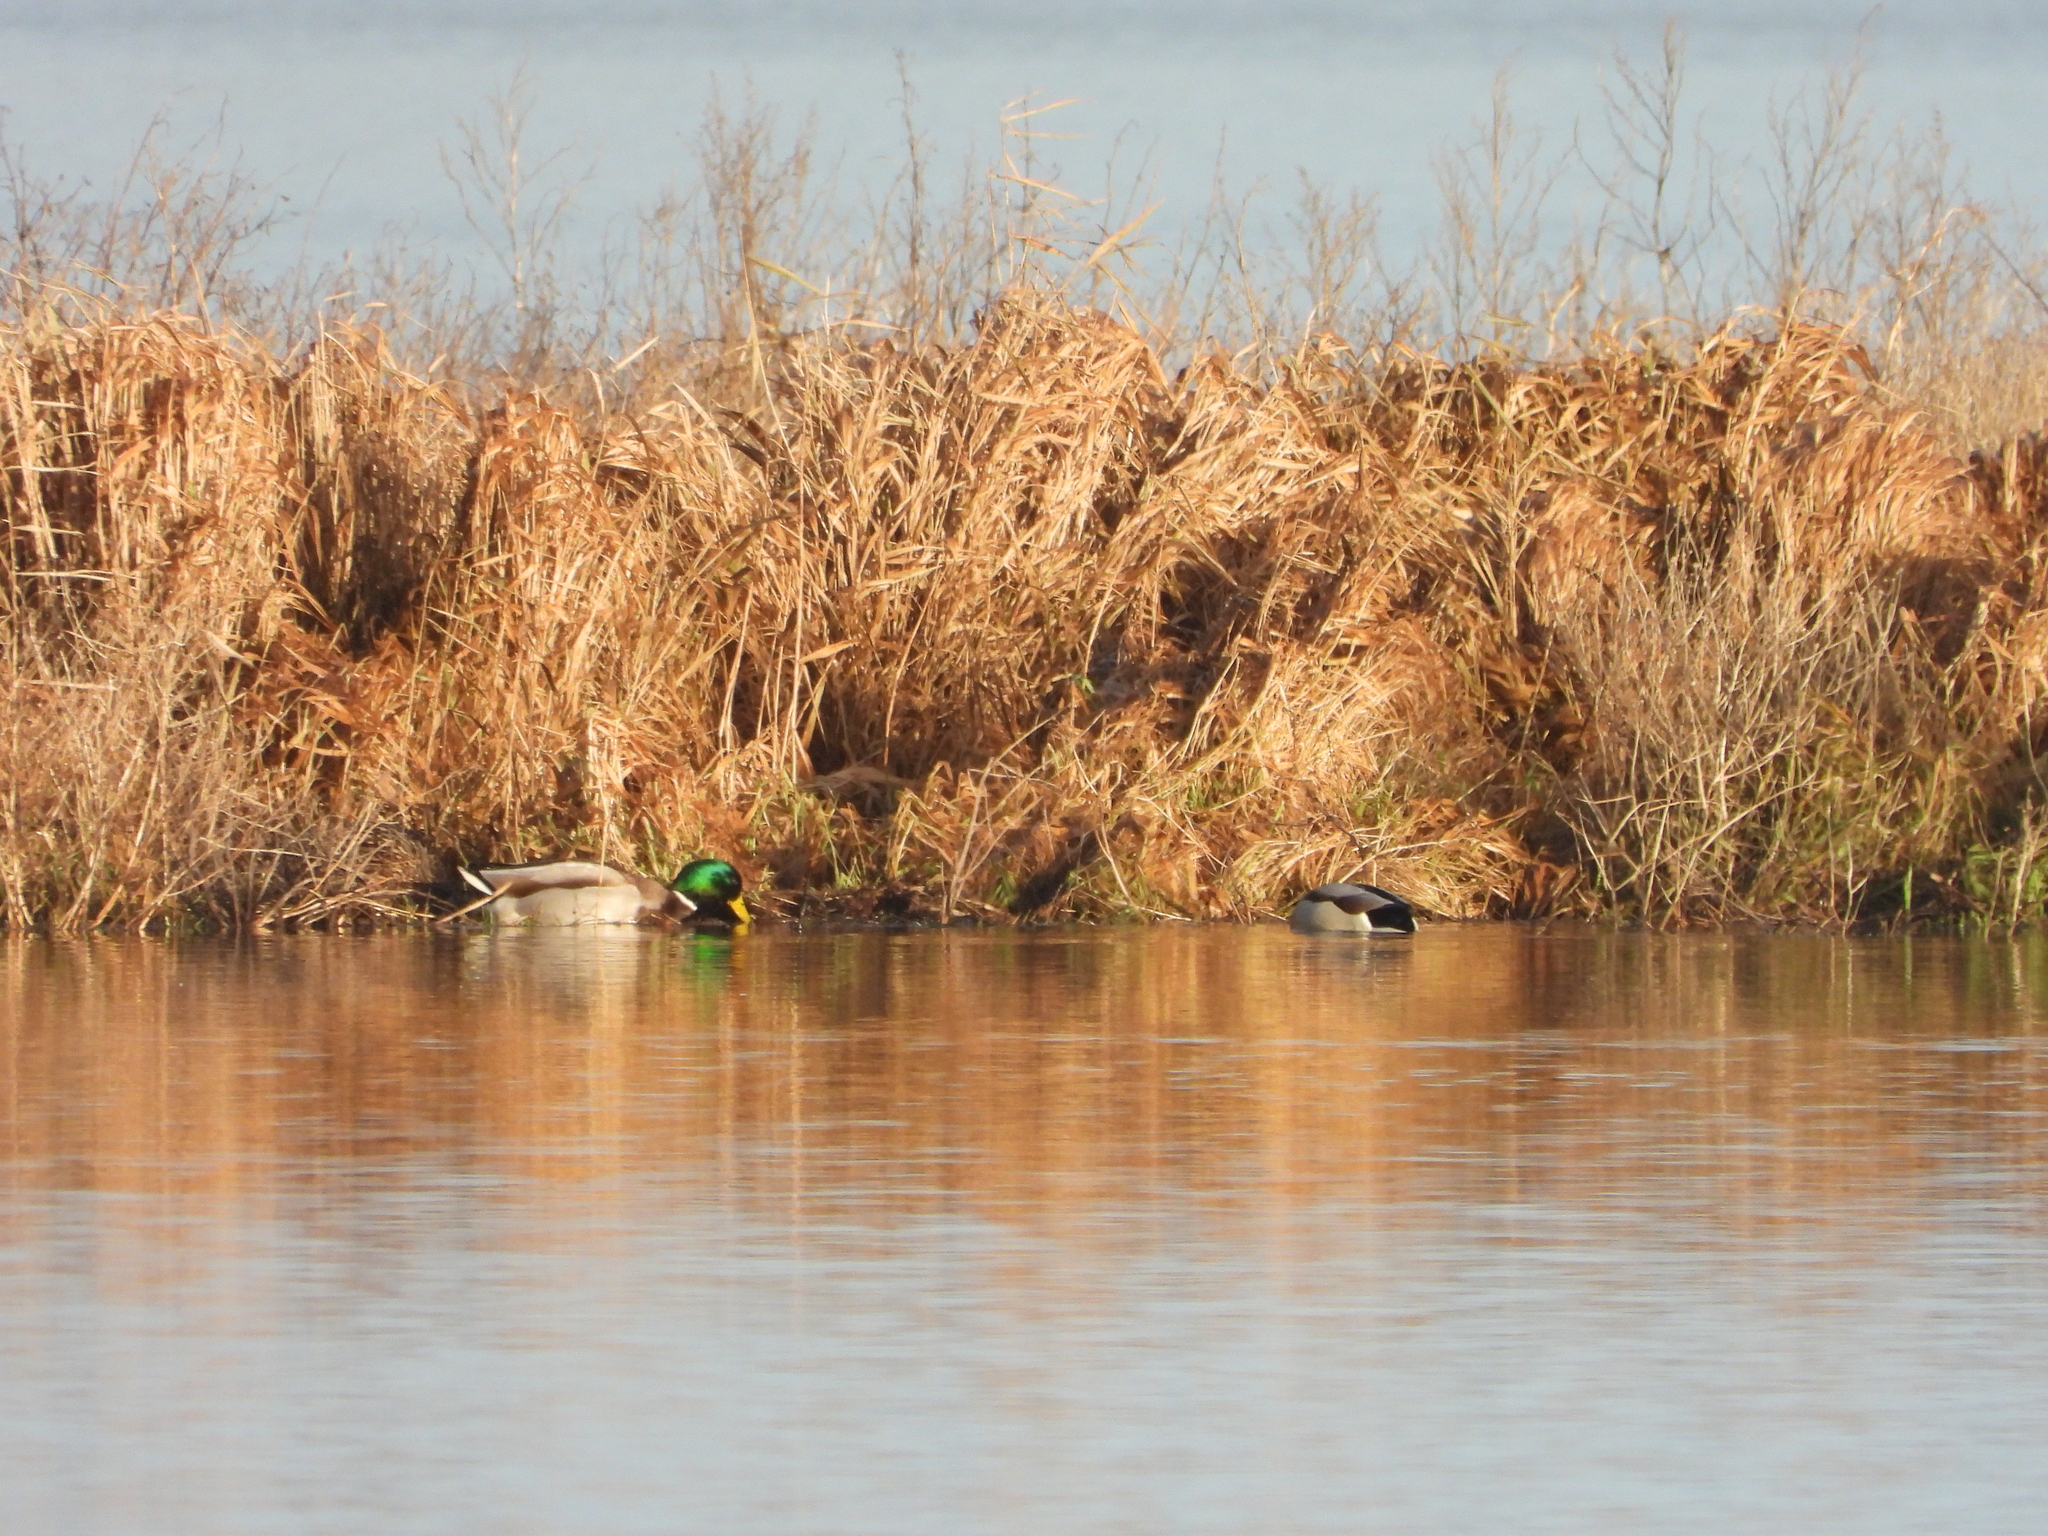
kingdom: Animalia
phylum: Chordata
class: Aves
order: Anseriformes
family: Anatidae
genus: Anas
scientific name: Anas platyrhynchos
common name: Mallard
